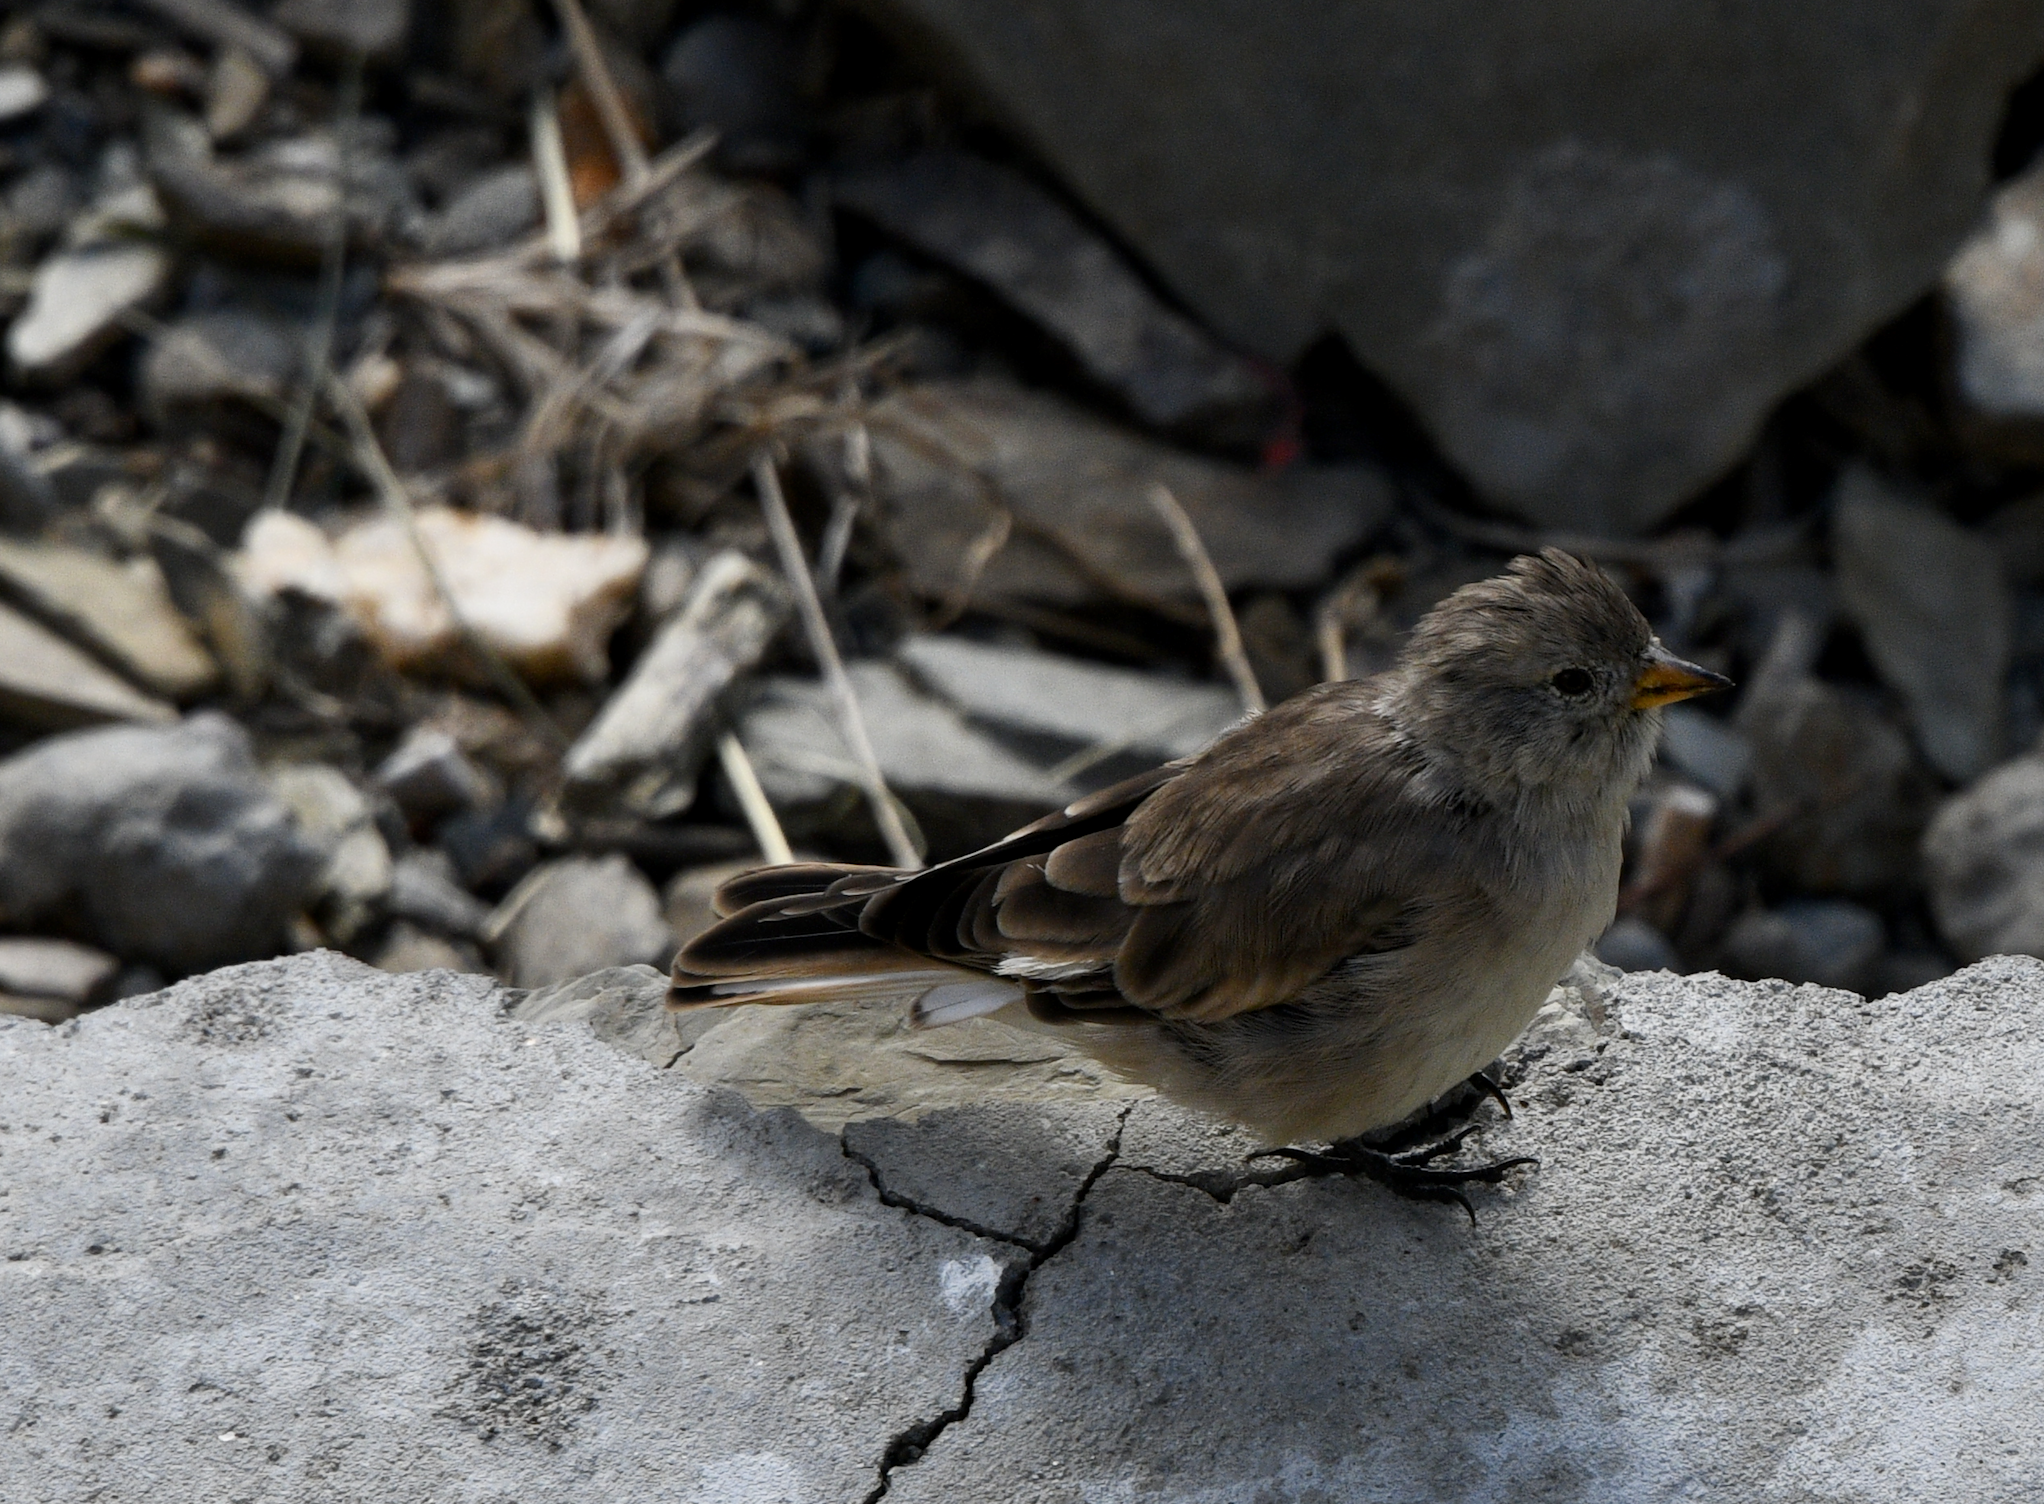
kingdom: Animalia
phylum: Chordata
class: Aves
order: Passeriformes
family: Passeridae
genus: Montifringilla
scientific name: Montifringilla adamsi
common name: Tibetan snowfinch
